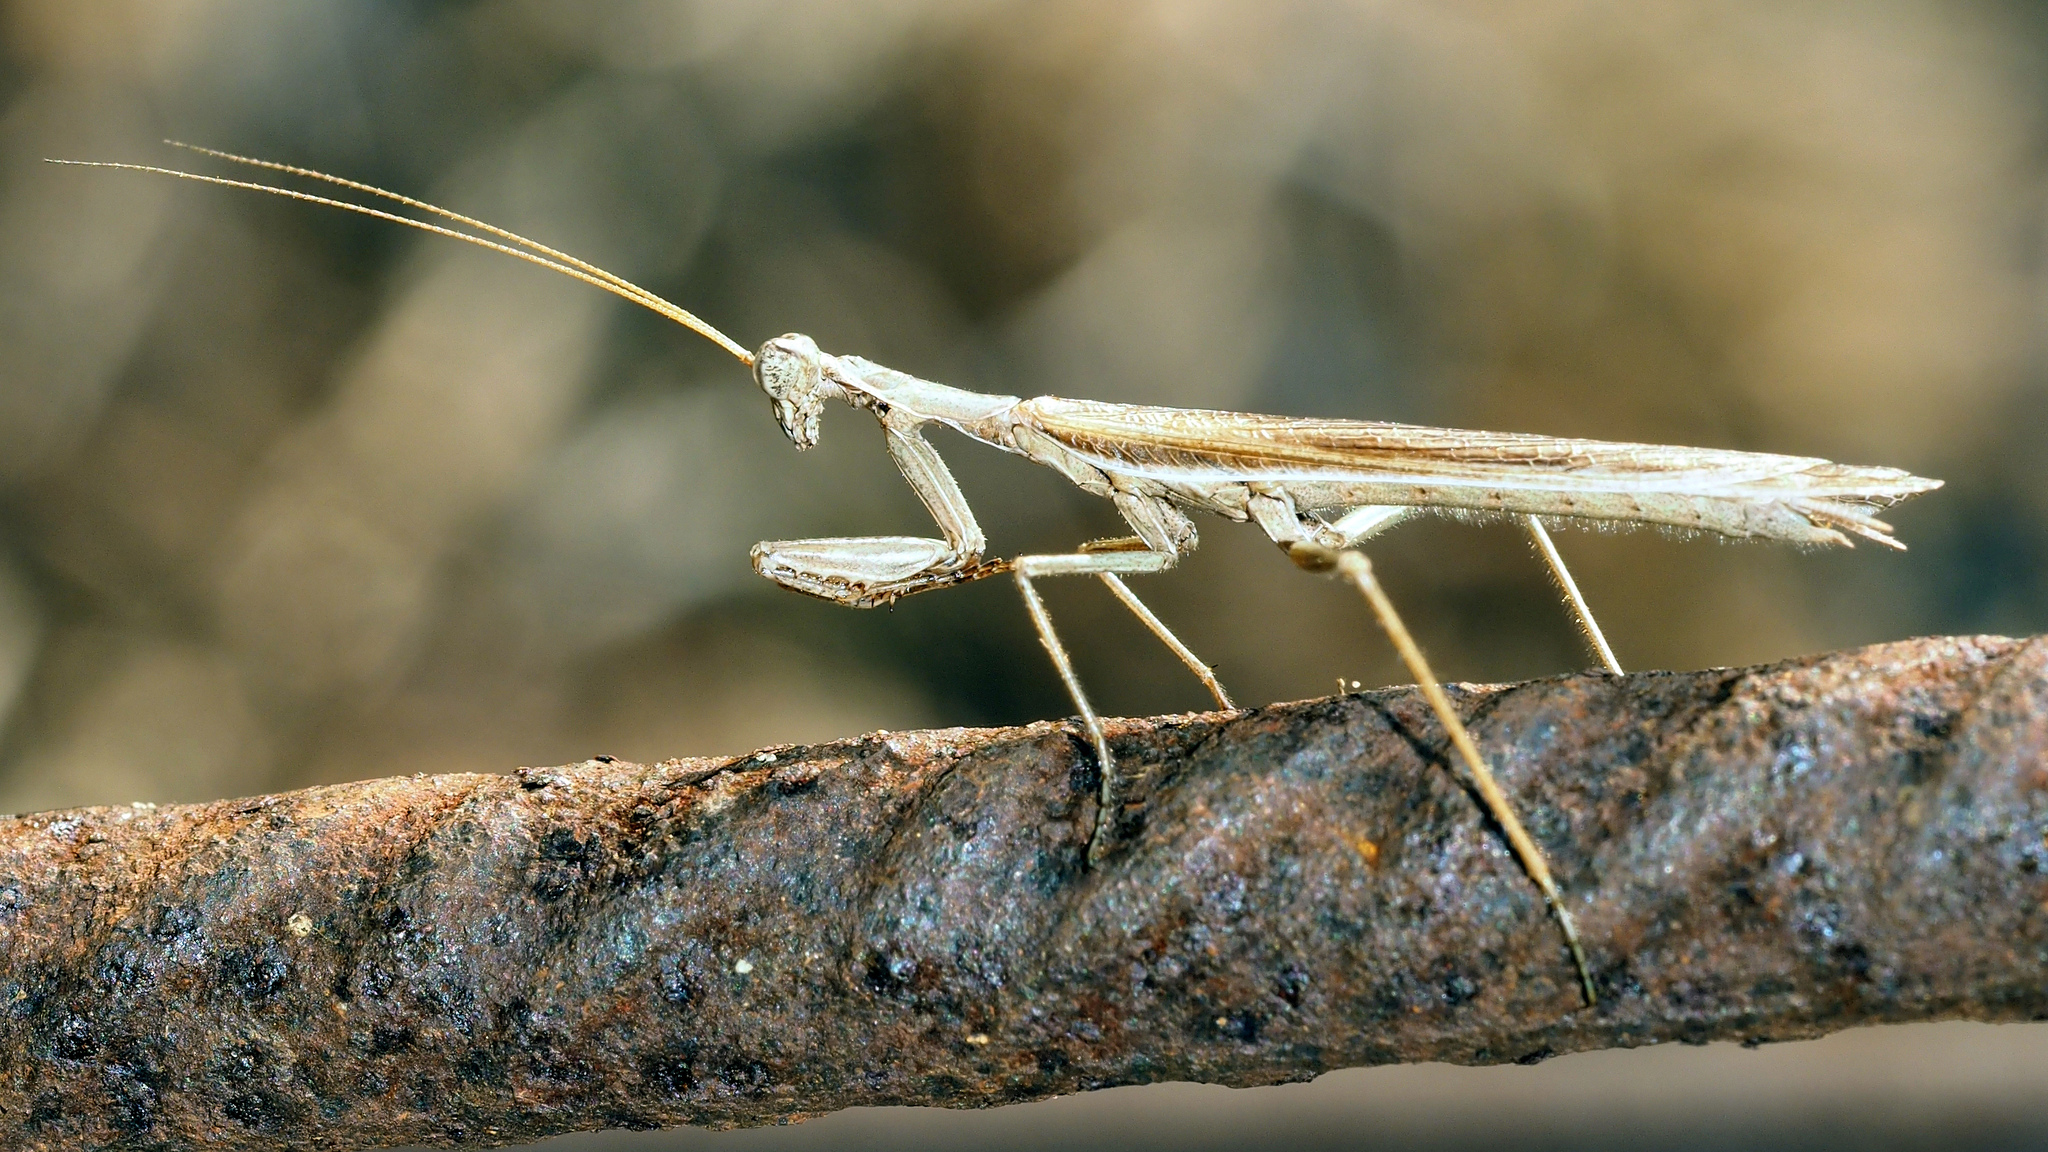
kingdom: Animalia
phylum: Arthropoda
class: Insecta
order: Mantodea
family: Amelidae
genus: Ameles
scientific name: Ameles decolor
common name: Dwarf mantis
